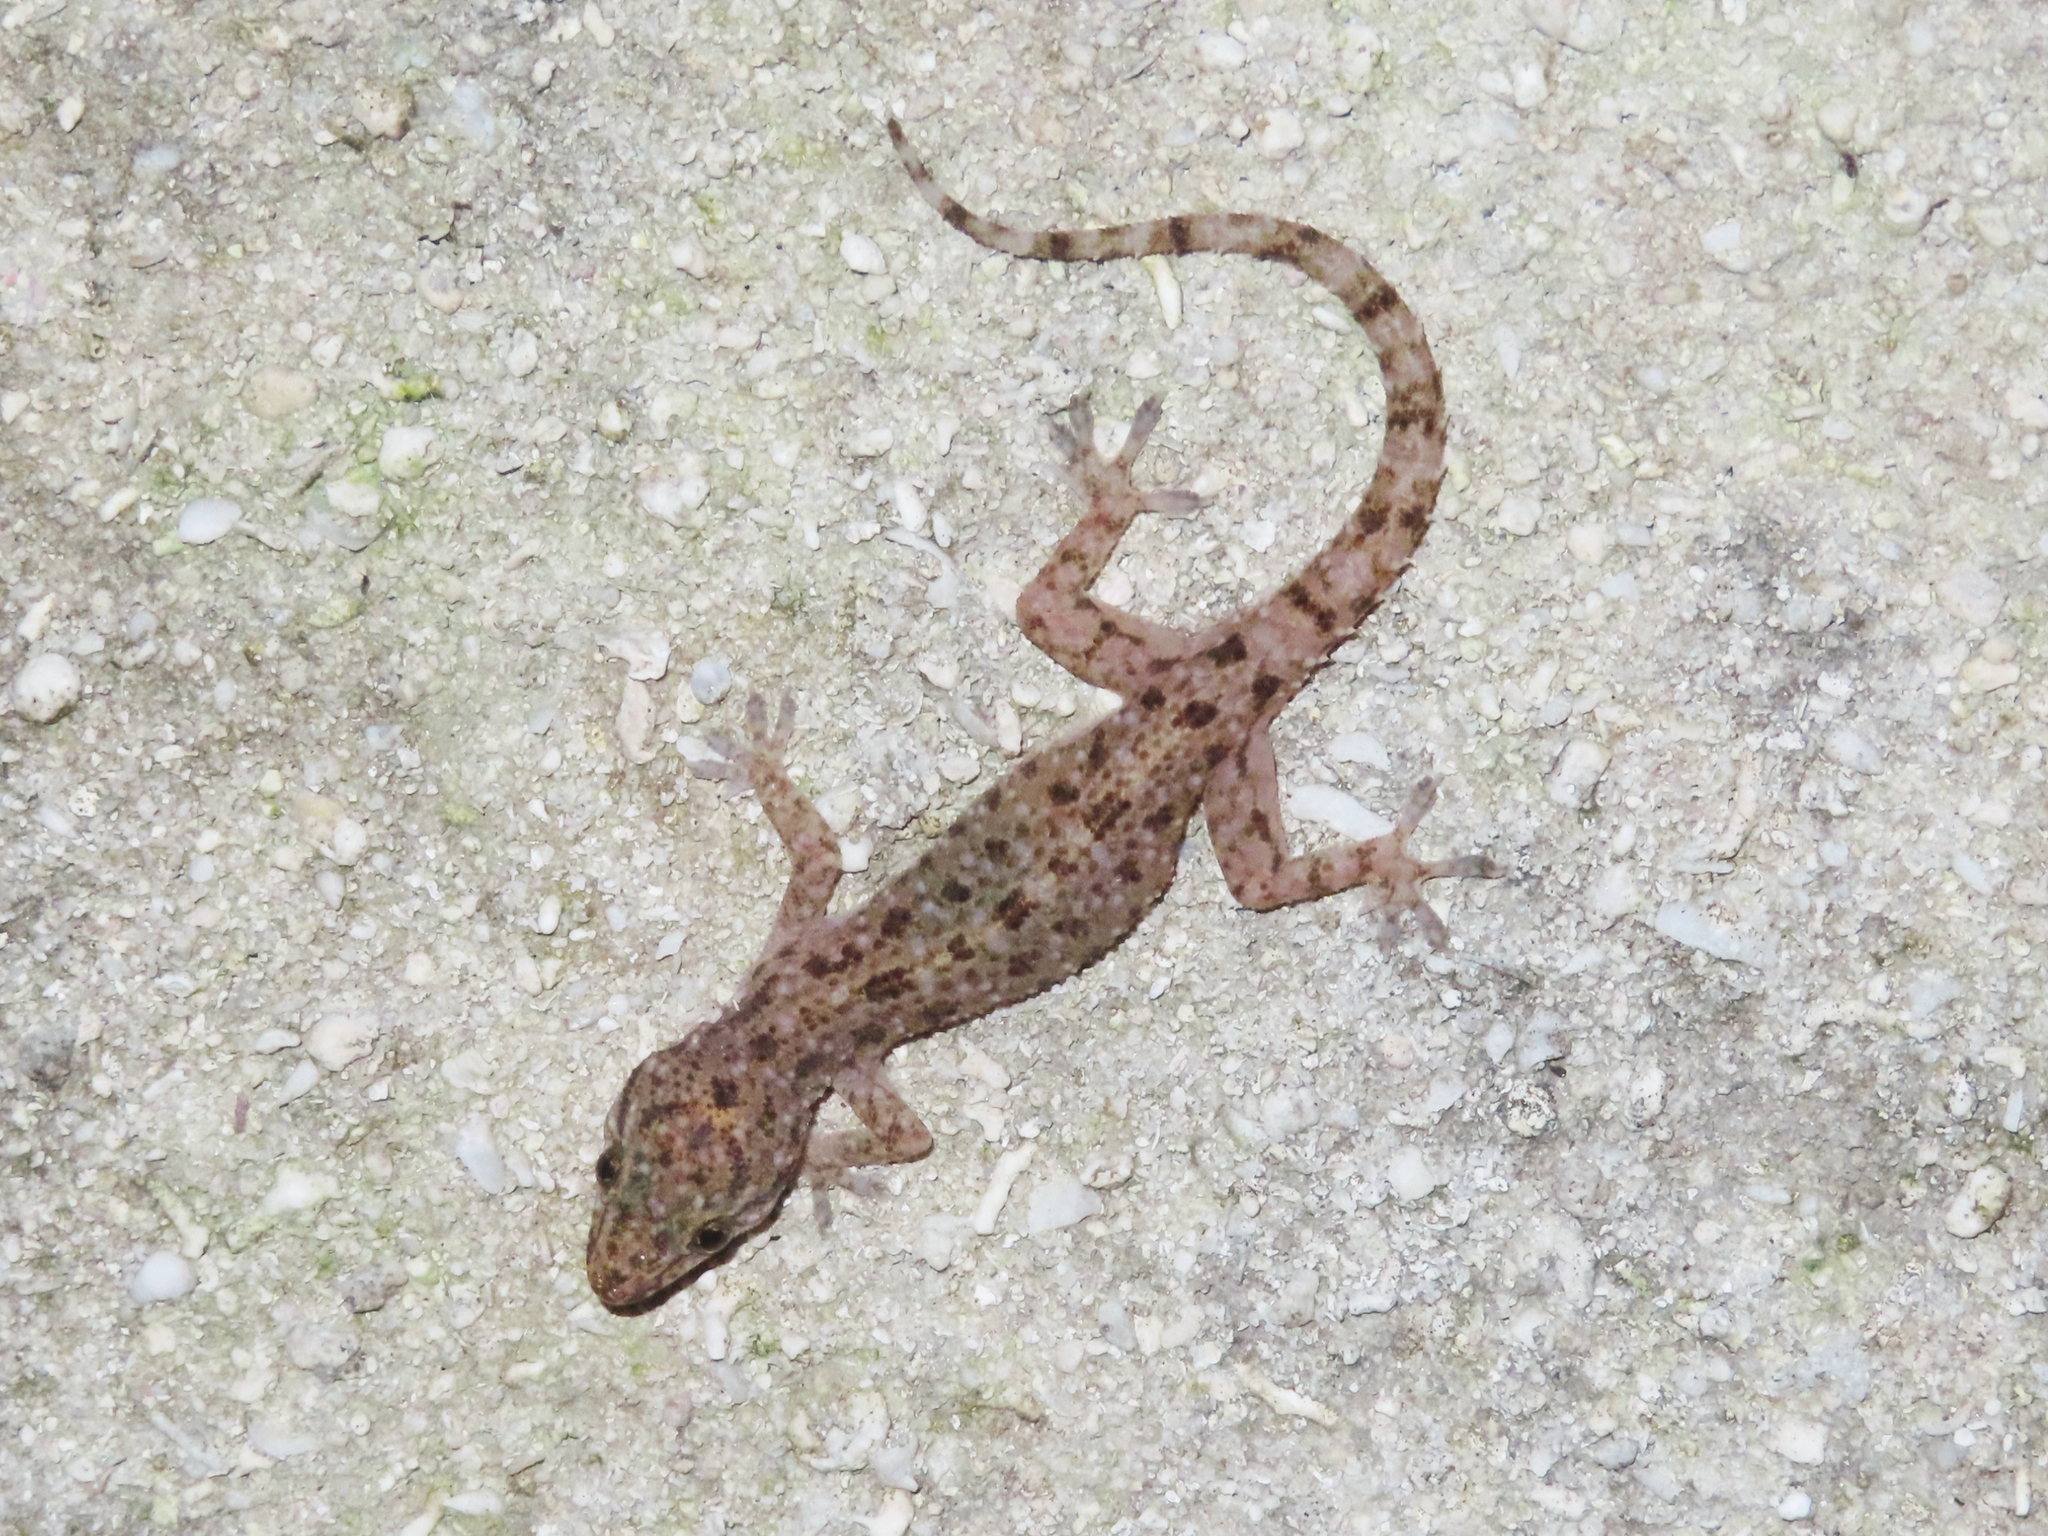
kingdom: Animalia
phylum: Chordata
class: Squamata
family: Gekkonidae
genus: Hemidactylus
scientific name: Hemidactylus parvimaculatus
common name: Spotted house gecko
